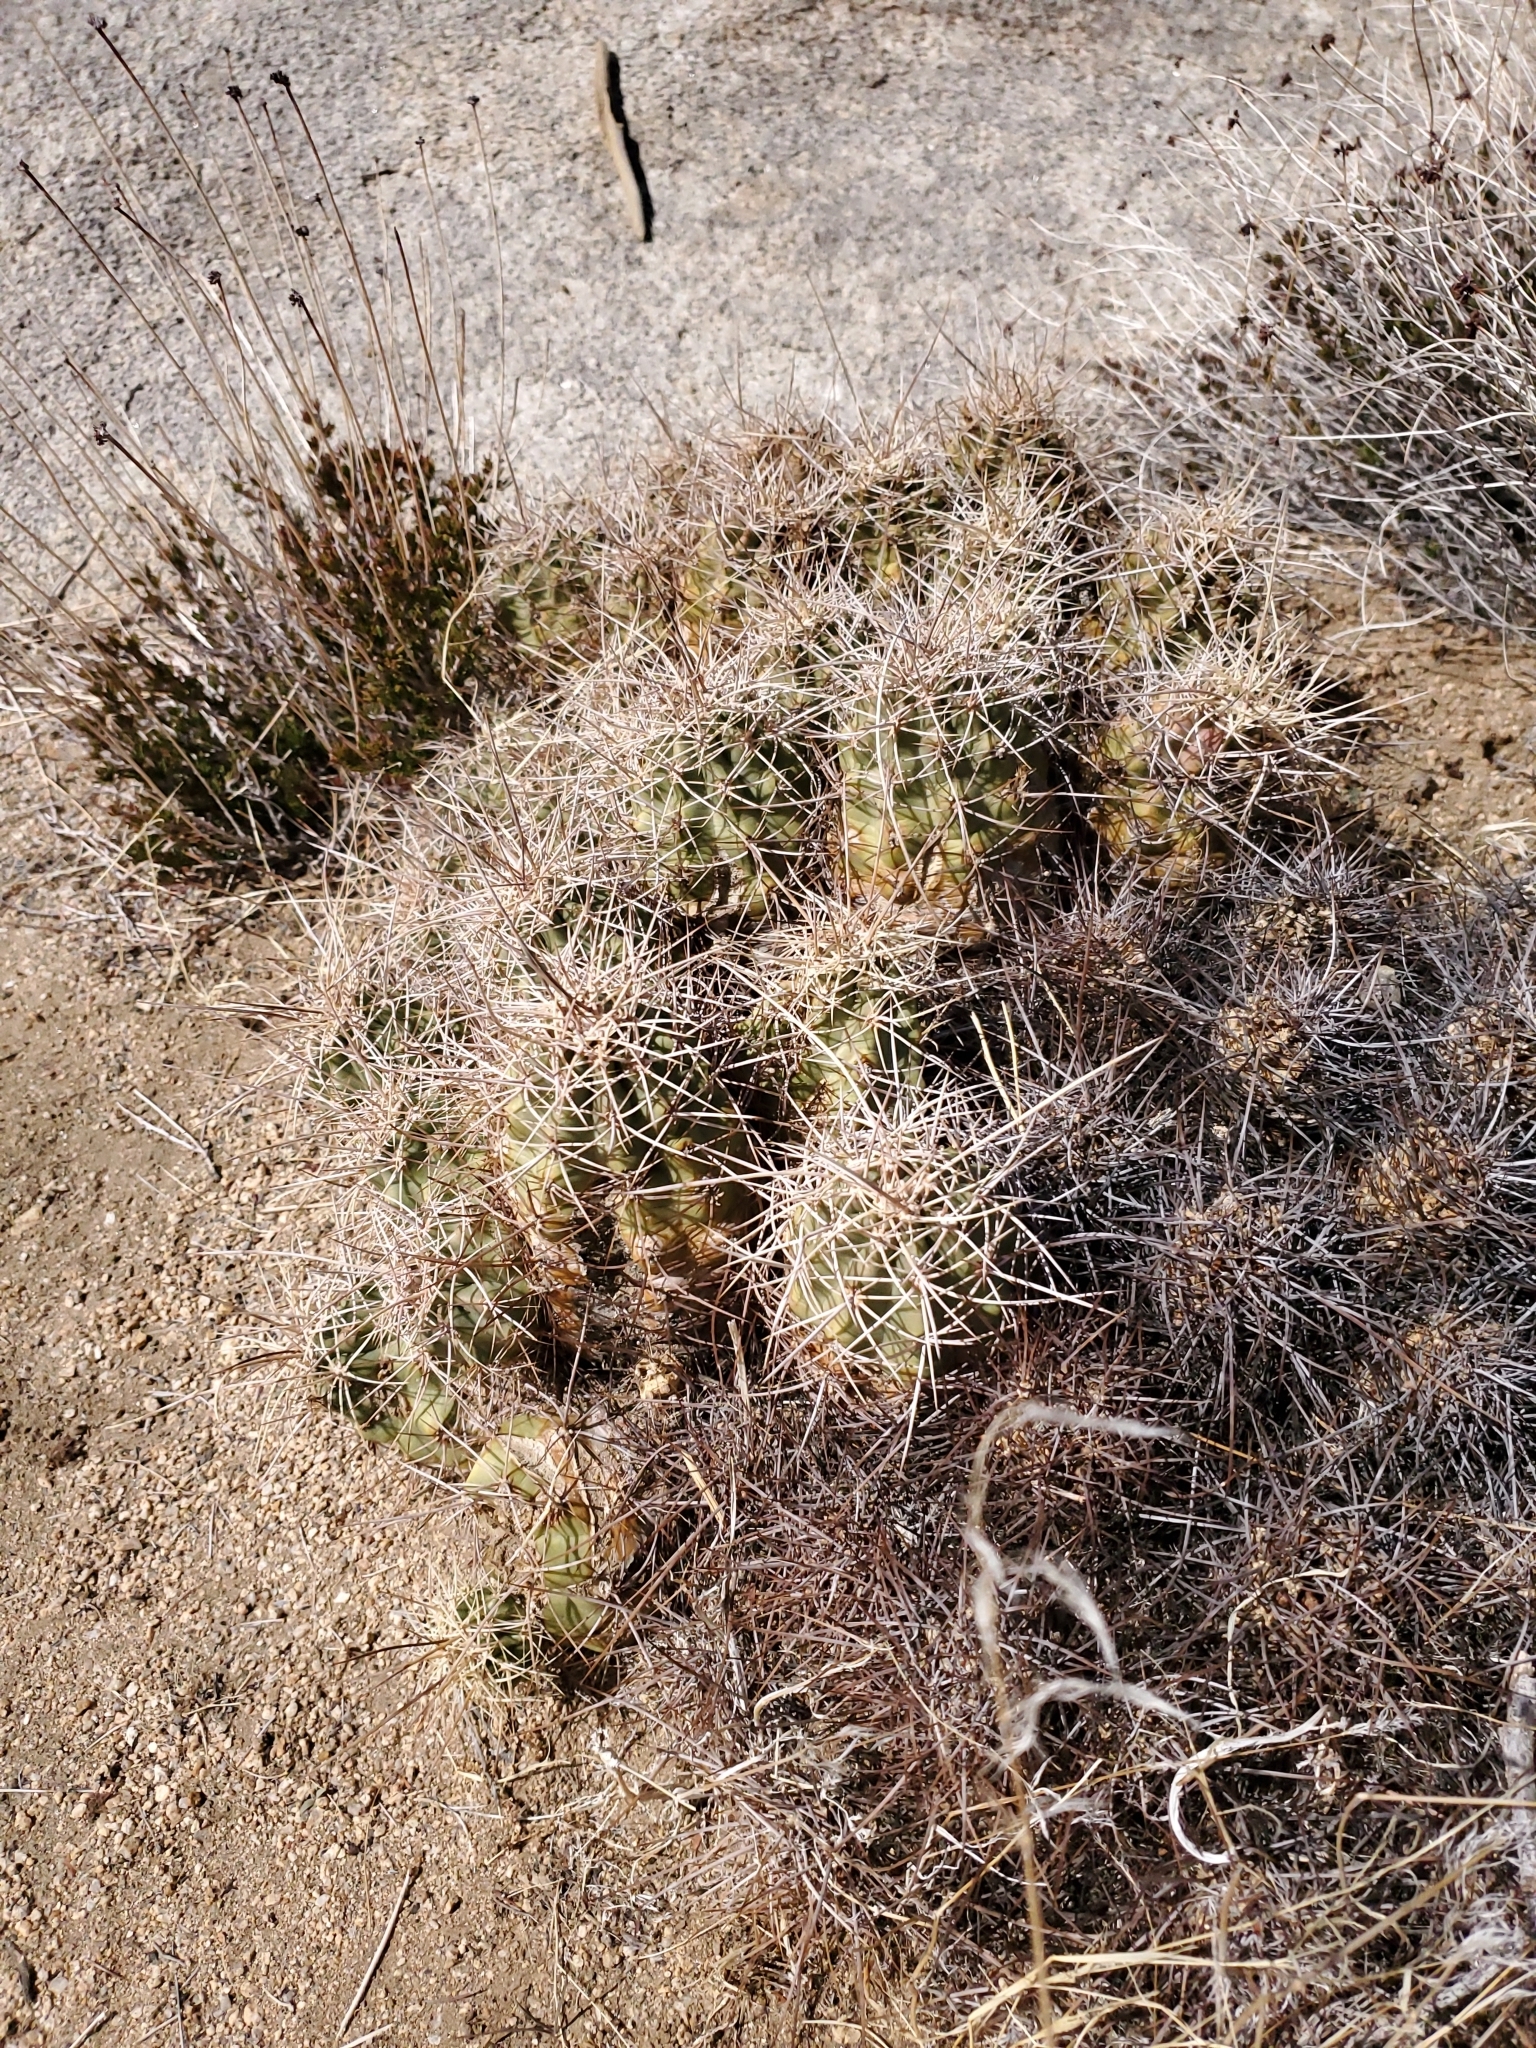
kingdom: Plantae
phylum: Tracheophyta
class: Magnoliopsida
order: Caryophyllales
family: Cactaceae
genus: Echinocereus
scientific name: Echinocereus triglochidiatus
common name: Claretcup hedgehog
